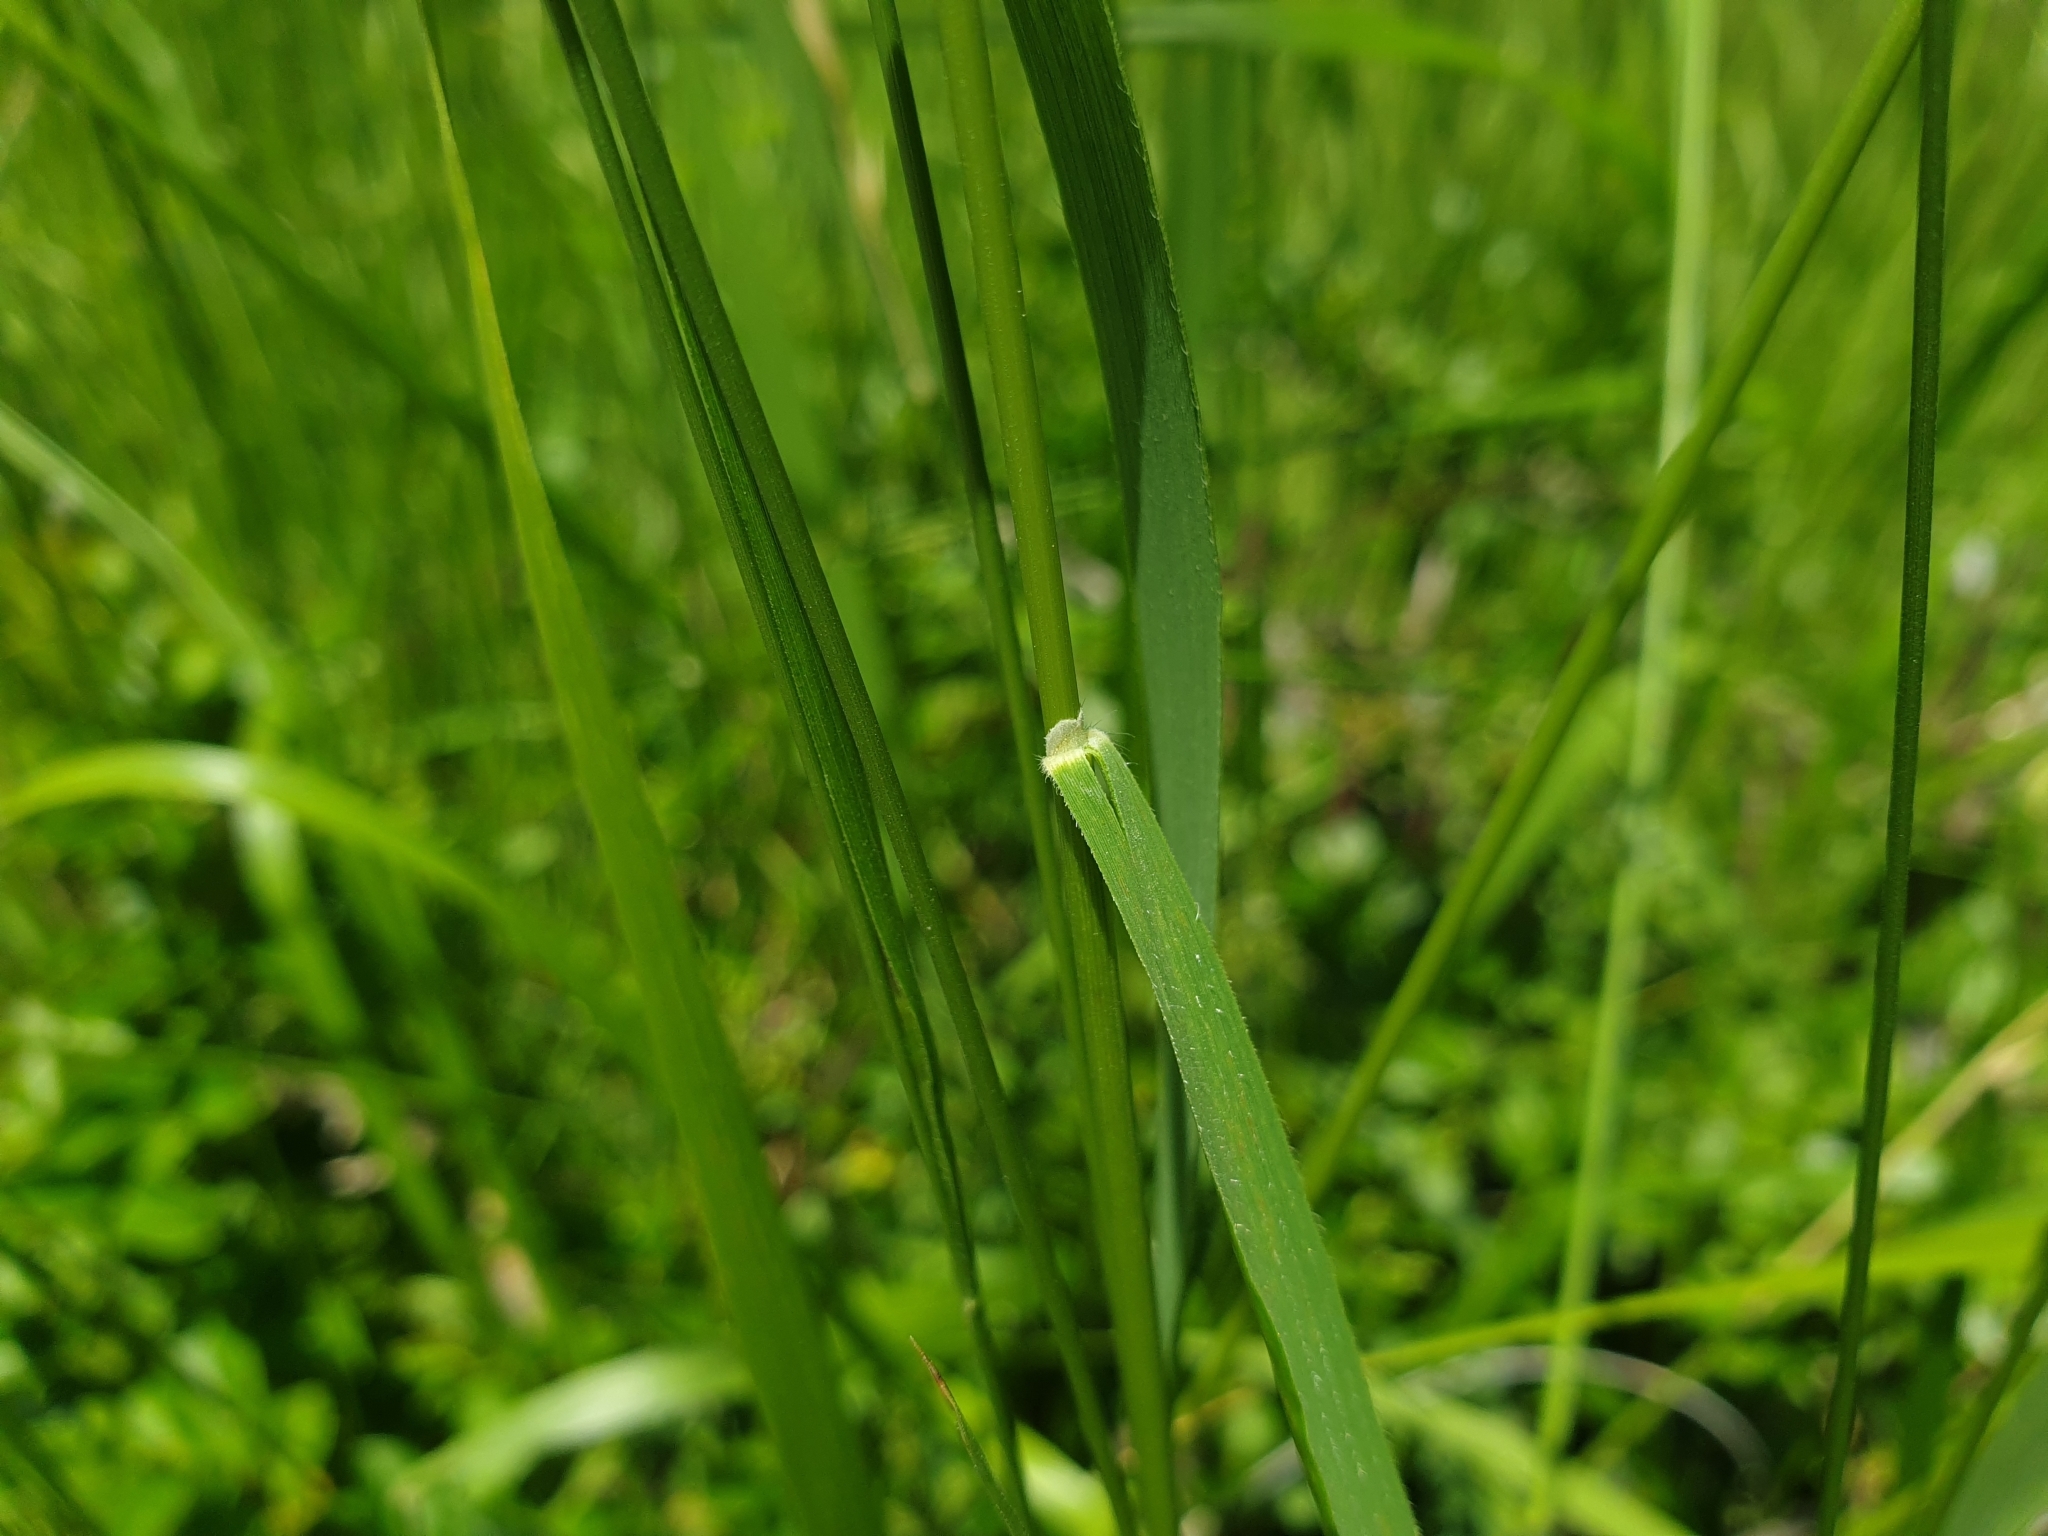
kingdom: Plantae
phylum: Tracheophyta
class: Liliopsida
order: Poales
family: Poaceae
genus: Brachypodium
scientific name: Brachypodium pinnatum
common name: Tor grass
